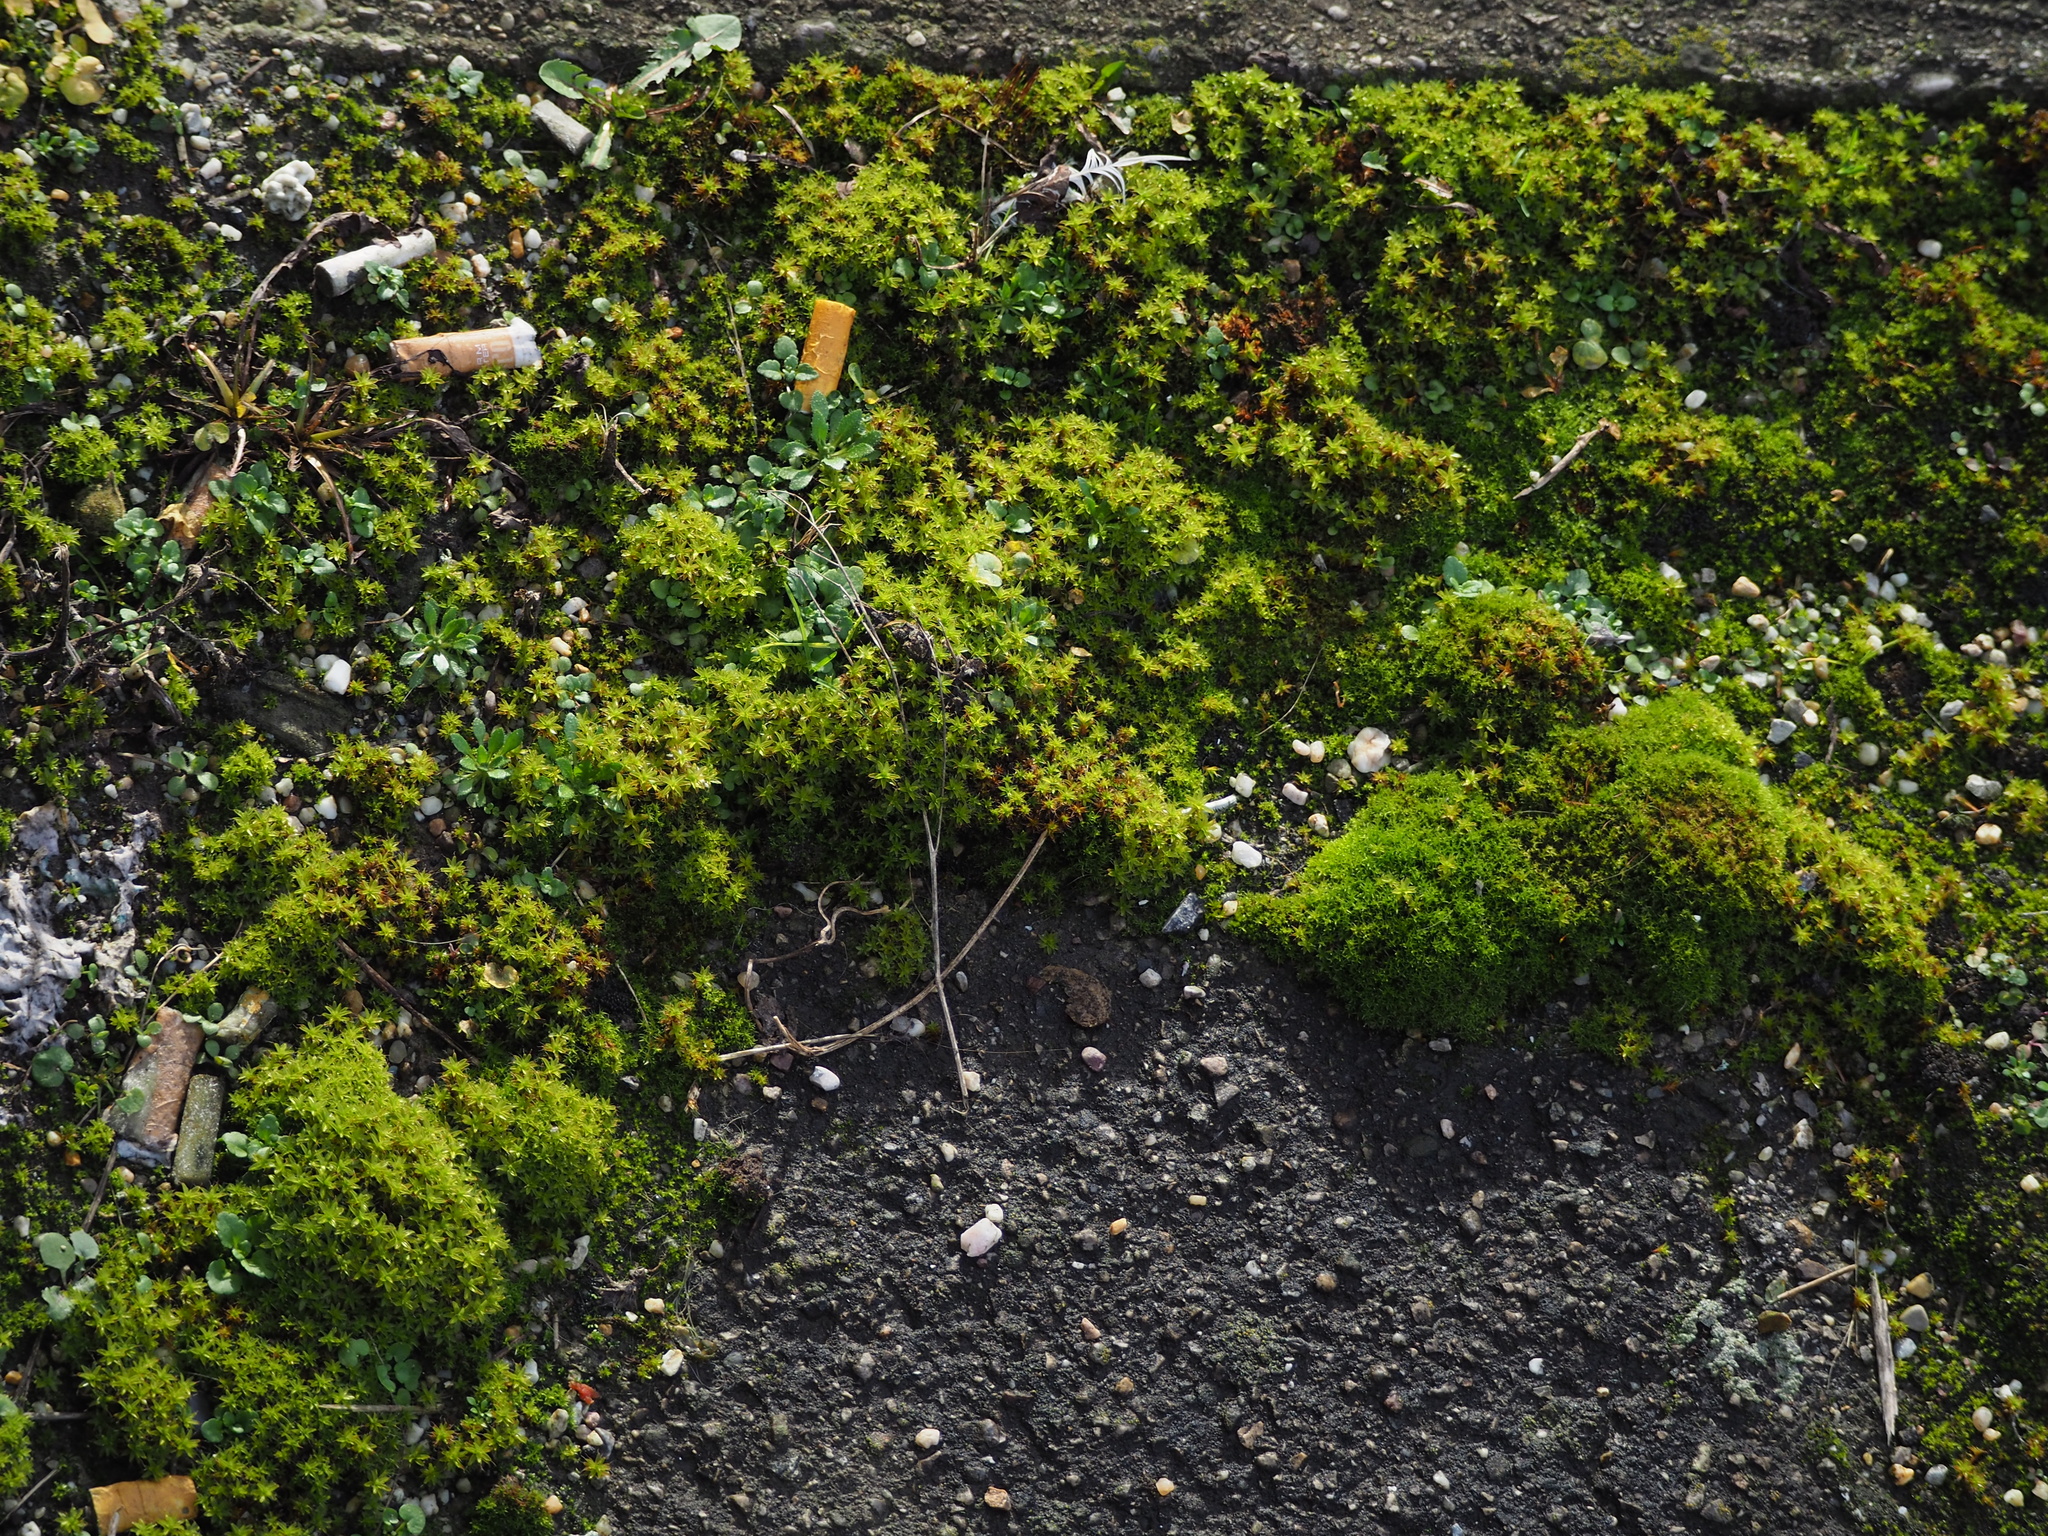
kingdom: Plantae
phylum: Bryophyta
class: Bryopsida
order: Pottiales
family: Pottiaceae
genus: Syntrichia
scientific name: Syntrichia ruralis
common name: Sidewalk screw moss
